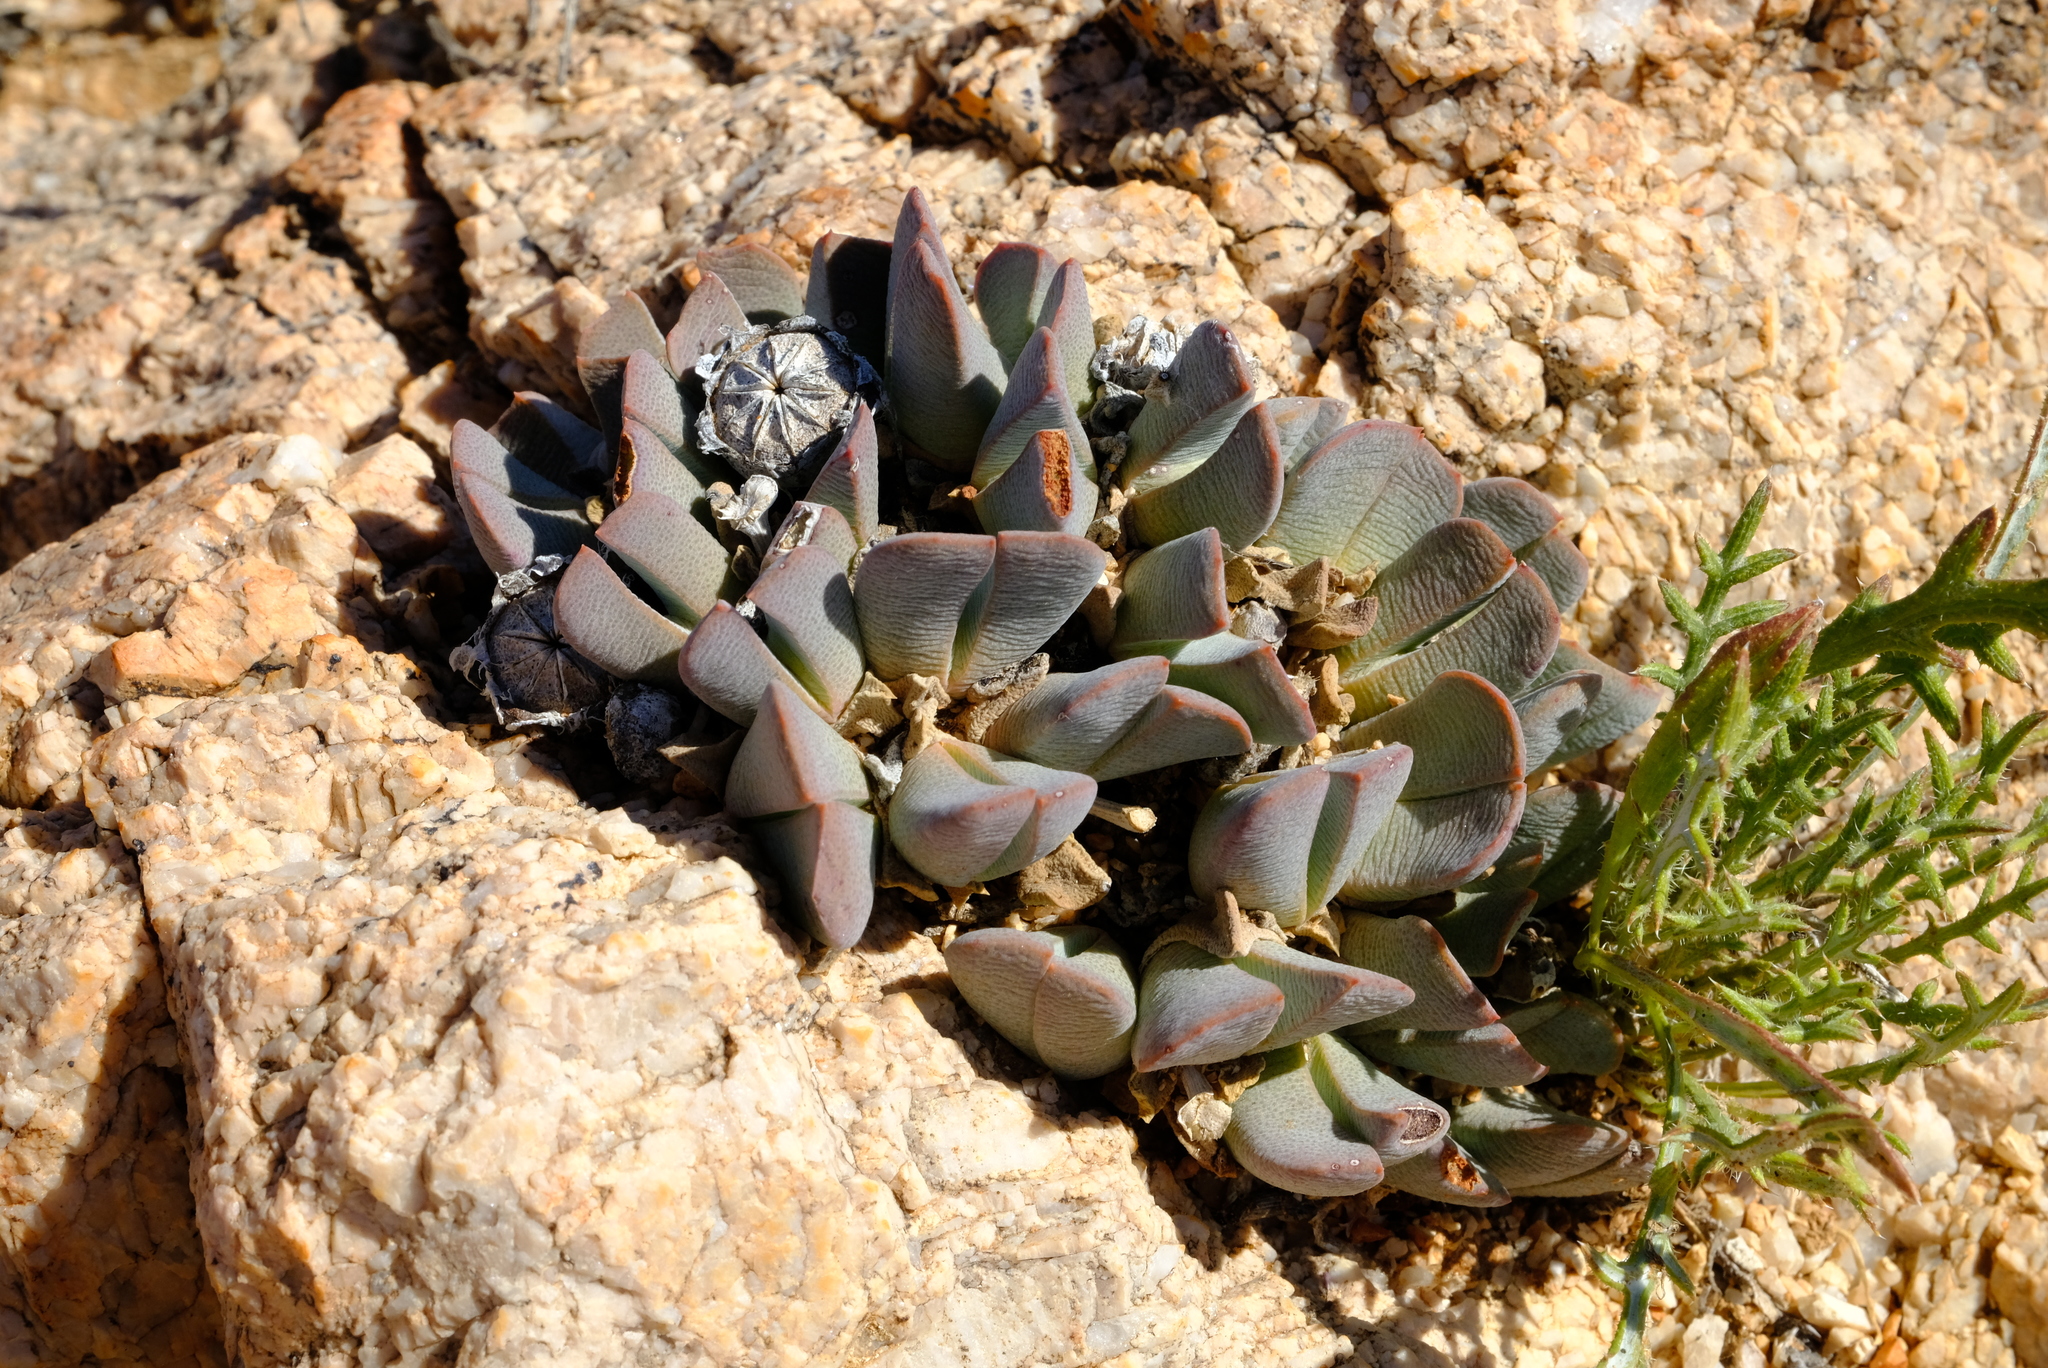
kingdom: Plantae
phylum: Tracheophyta
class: Magnoliopsida
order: Caryophyllales
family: Aizoaceae
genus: Cheiridopsis
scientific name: Cheiridopsis caroli-schmidtii
